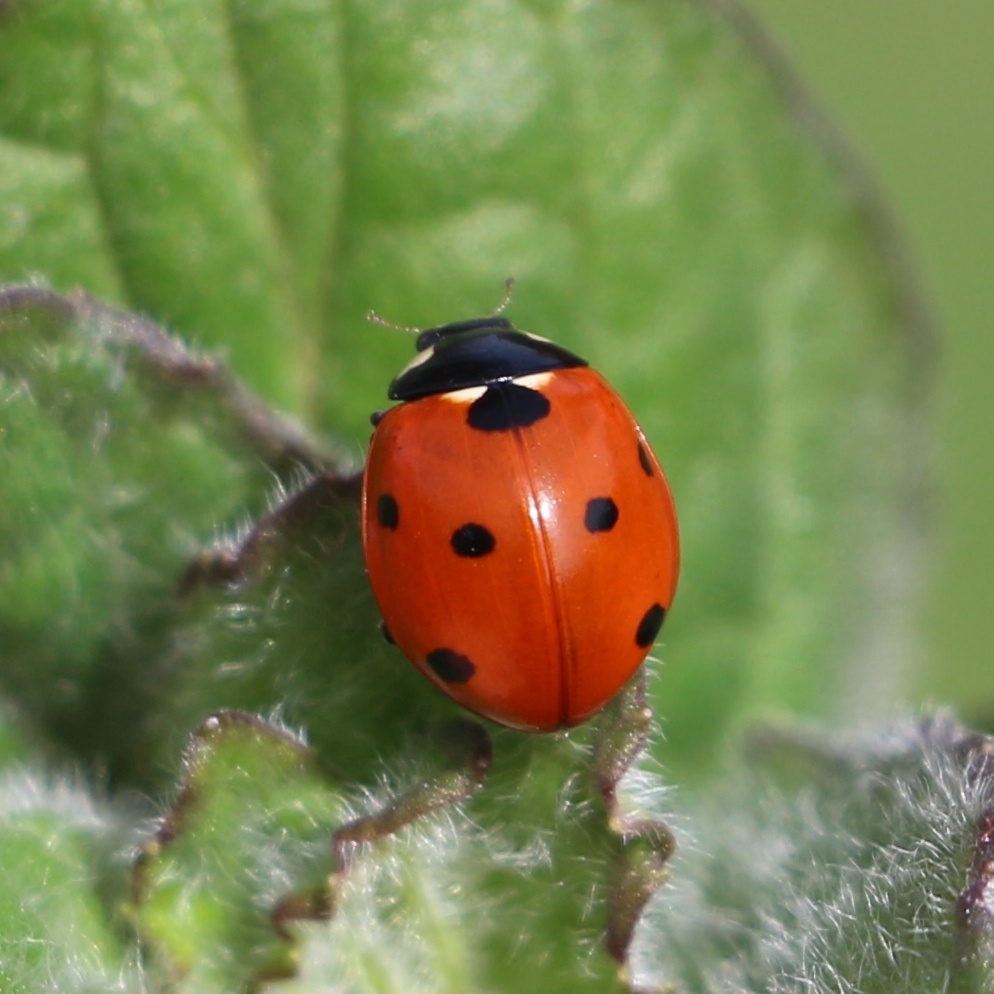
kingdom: Animalia
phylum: Arthropoda
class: Insecta
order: Coleoptera
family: Coccinellidae
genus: Coccinella
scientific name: Coccinella septempunctata
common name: Sevenspotted lady beetle
